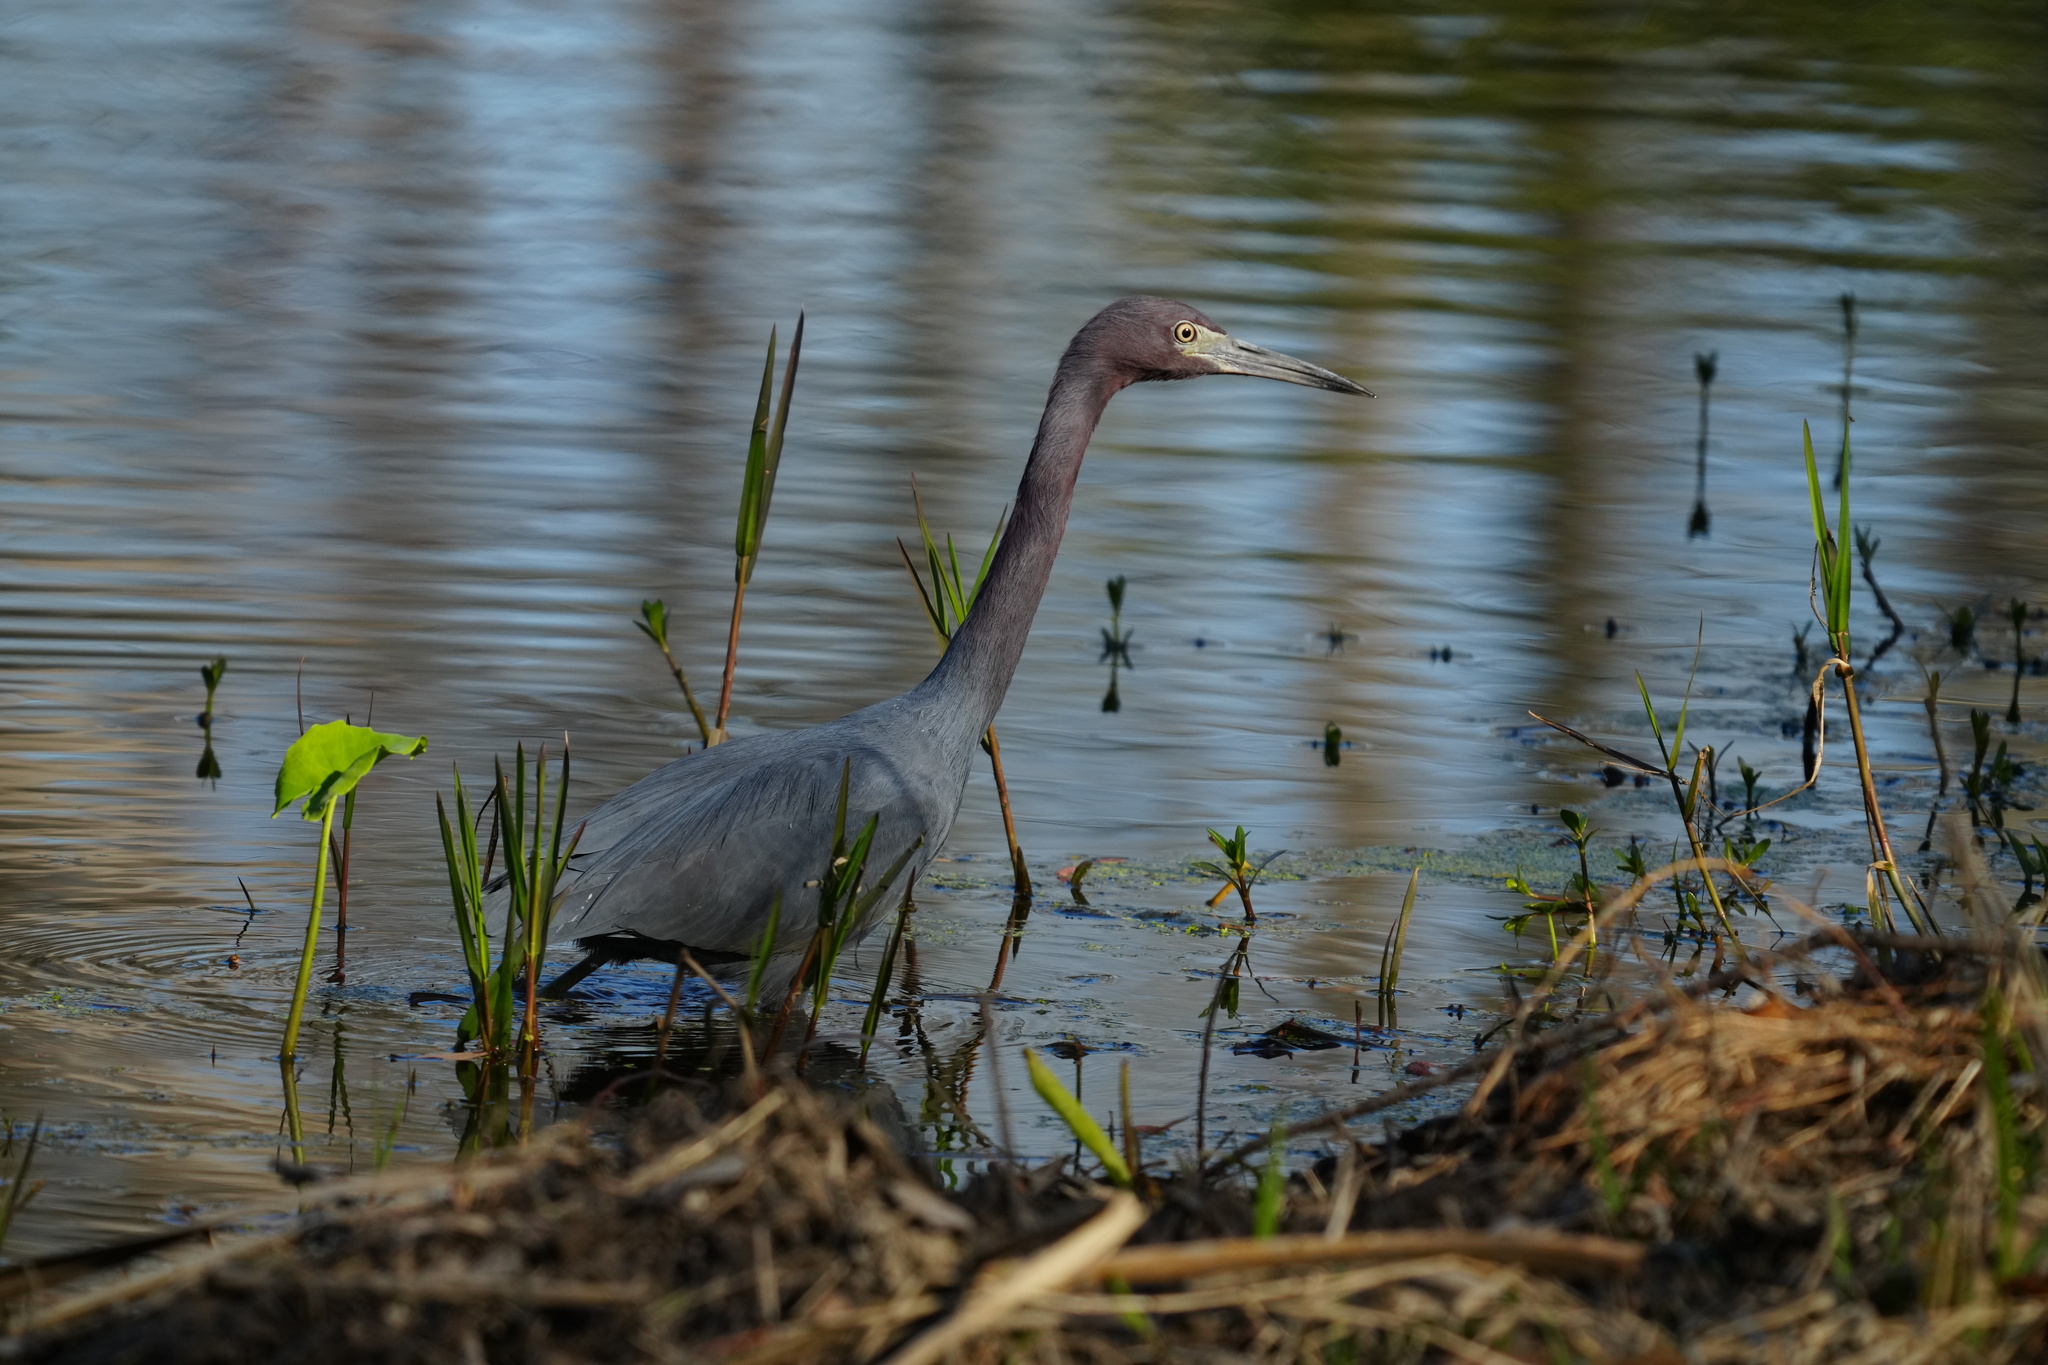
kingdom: Animalia
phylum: Chordata
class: Aves
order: Pelecaniformes
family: Ardeidae
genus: Egretta
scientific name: Egretta caerulea
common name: Little blue heron
